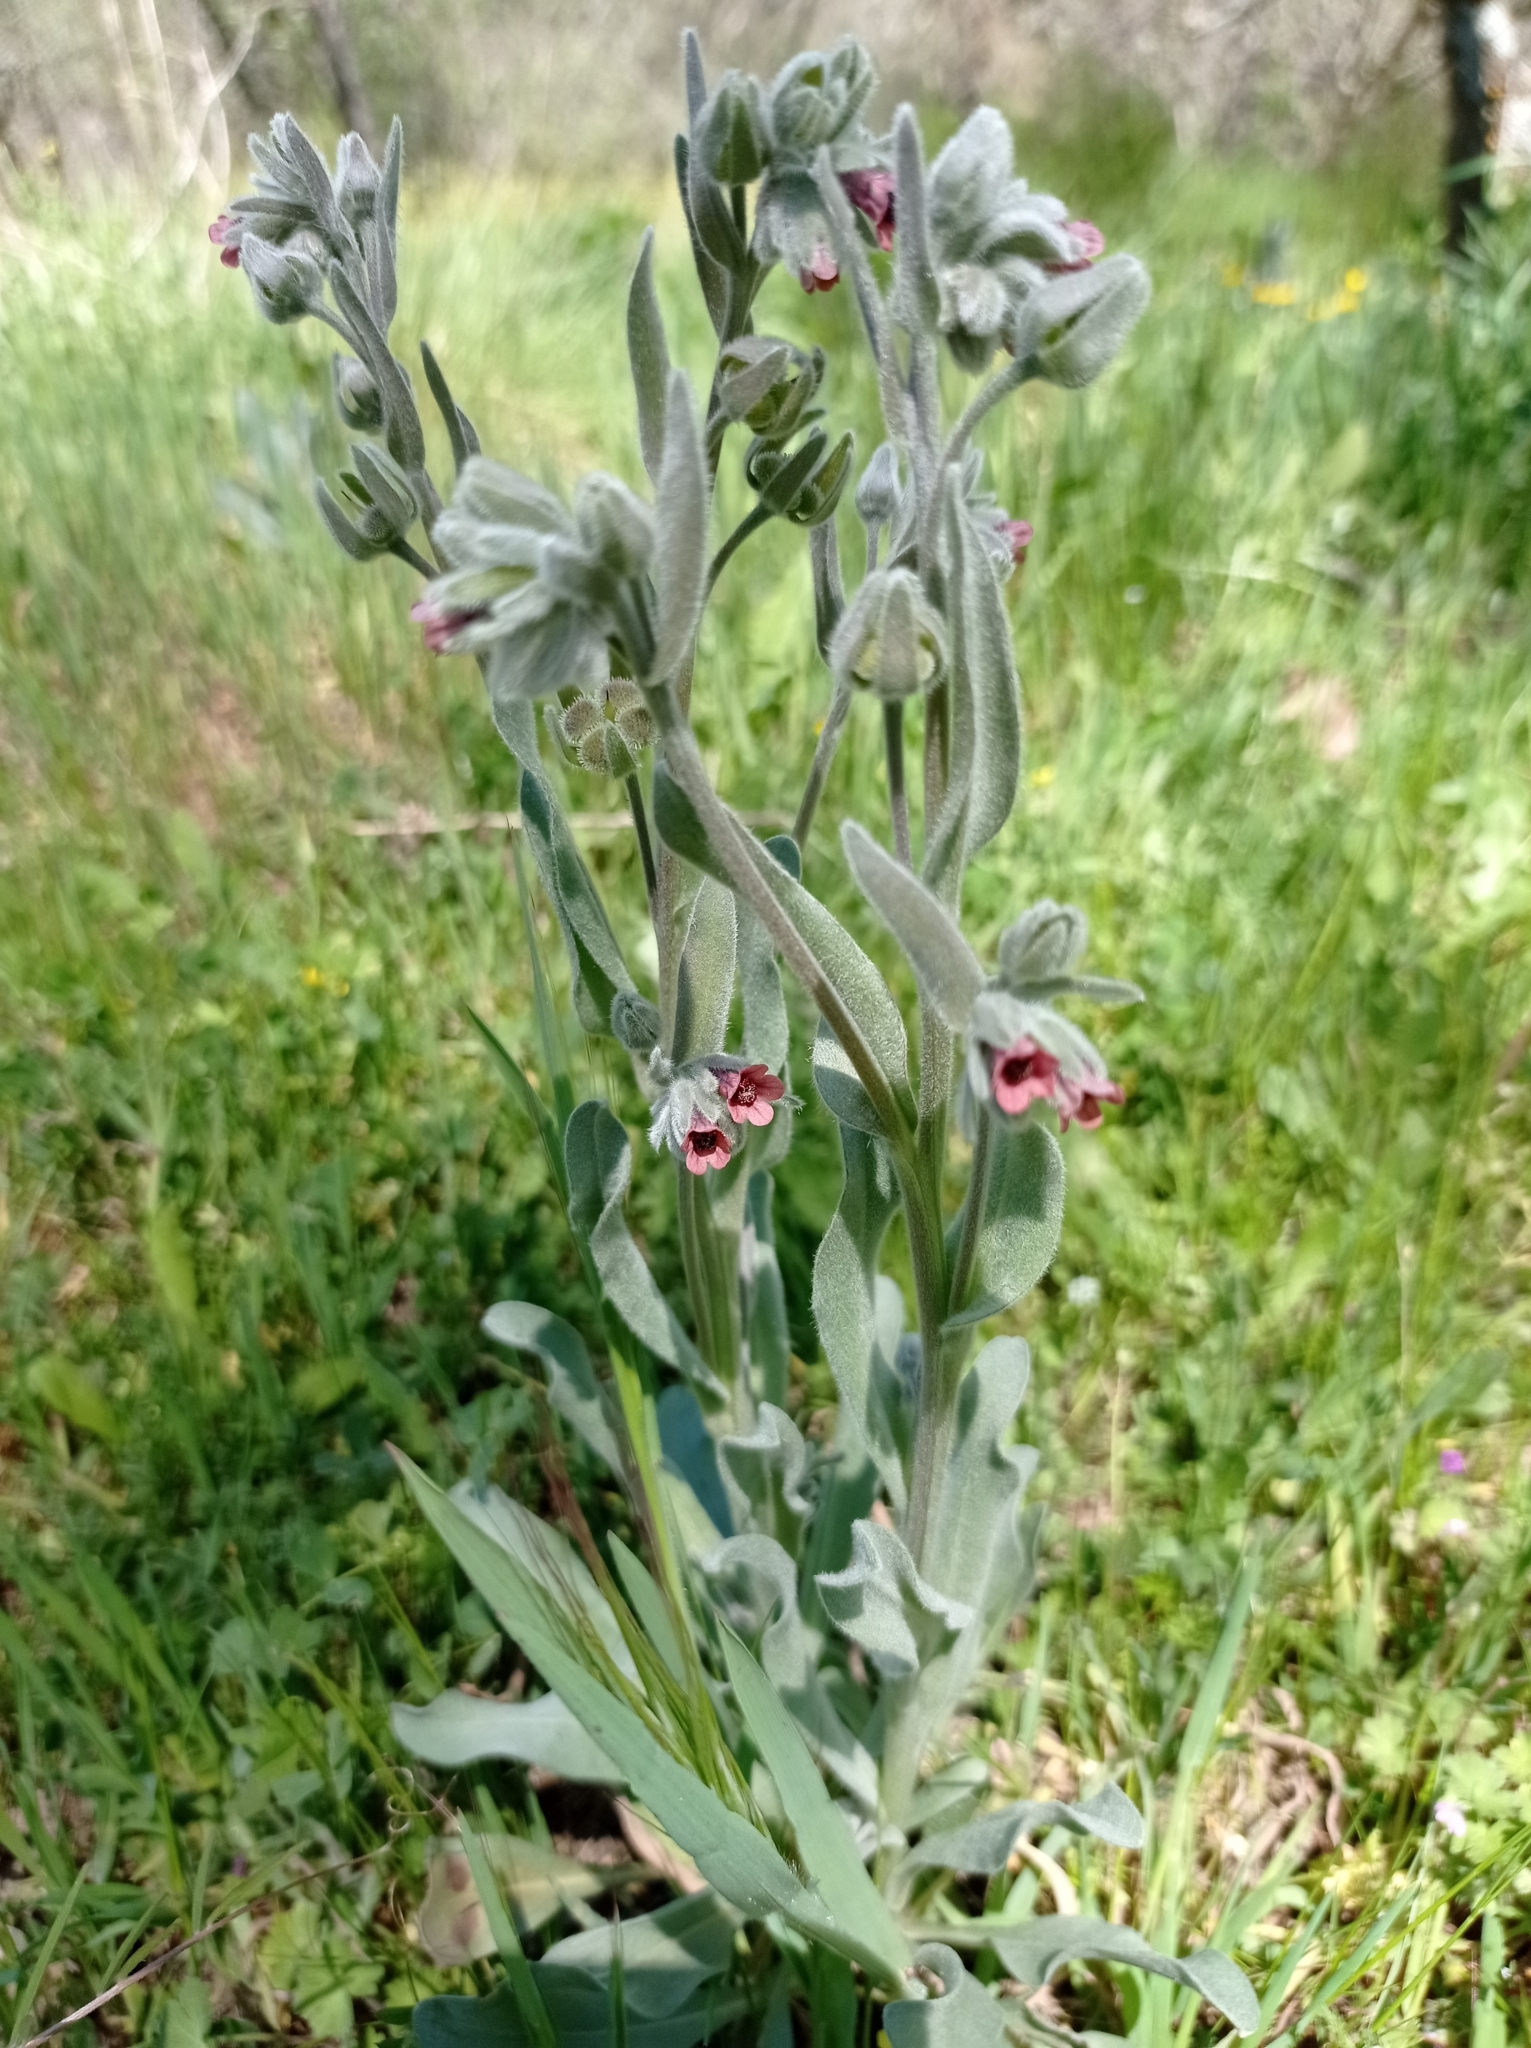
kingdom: Plantae
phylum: Tracheophyta
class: Magnoliopsida
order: Boraginales
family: Boraginaceae
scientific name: Boraginaceae
